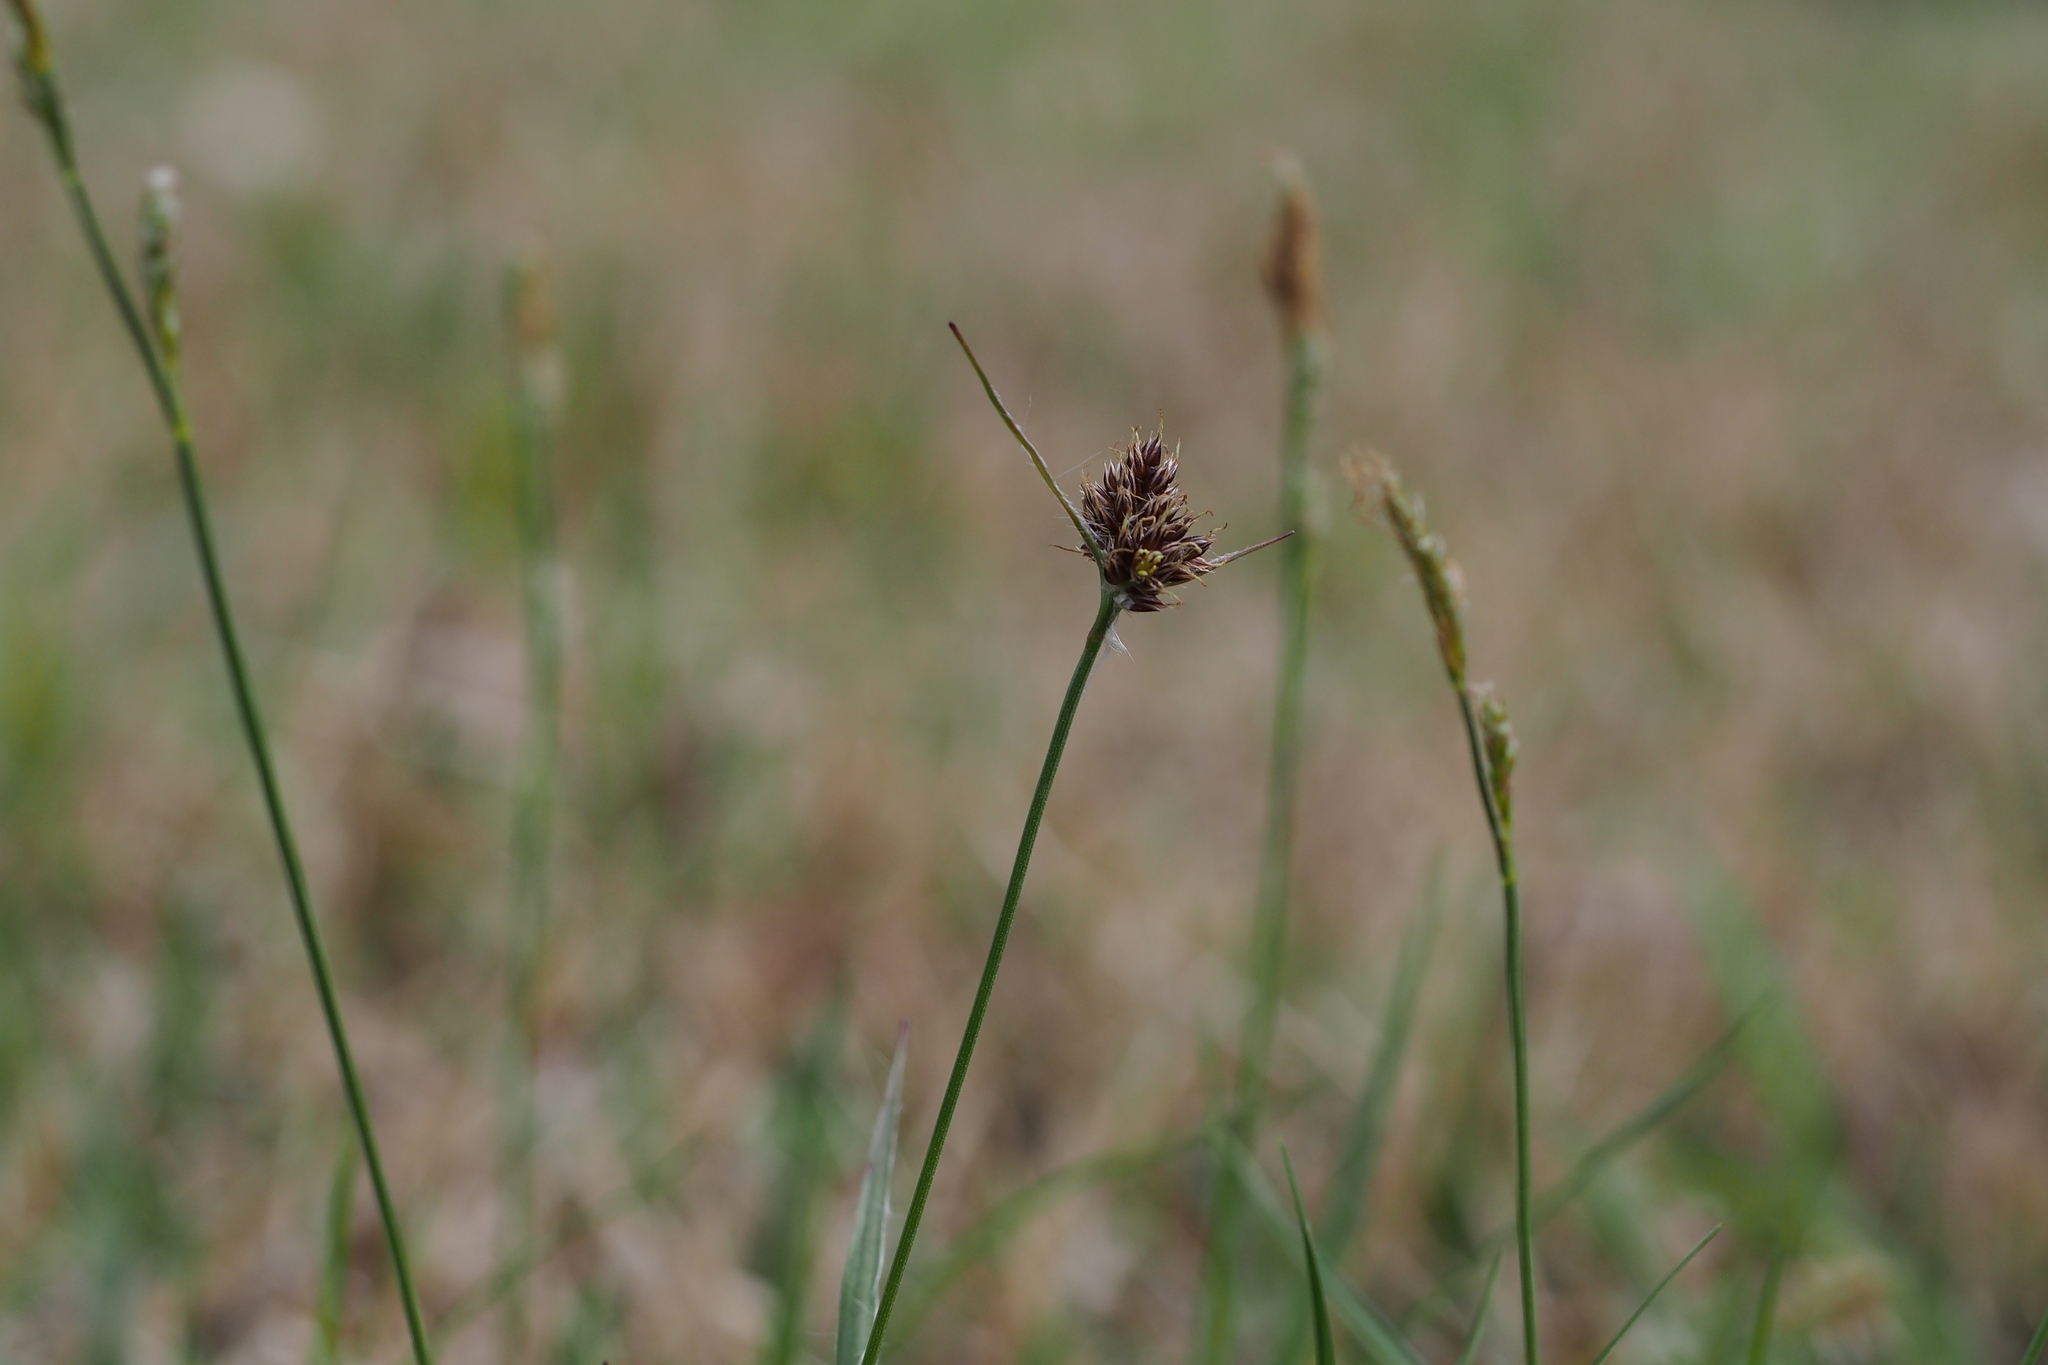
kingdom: Plantae
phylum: Tracheophyta
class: Liliopsida
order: Poales
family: Juncaceae
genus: Luzula
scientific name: Luzula capitata
